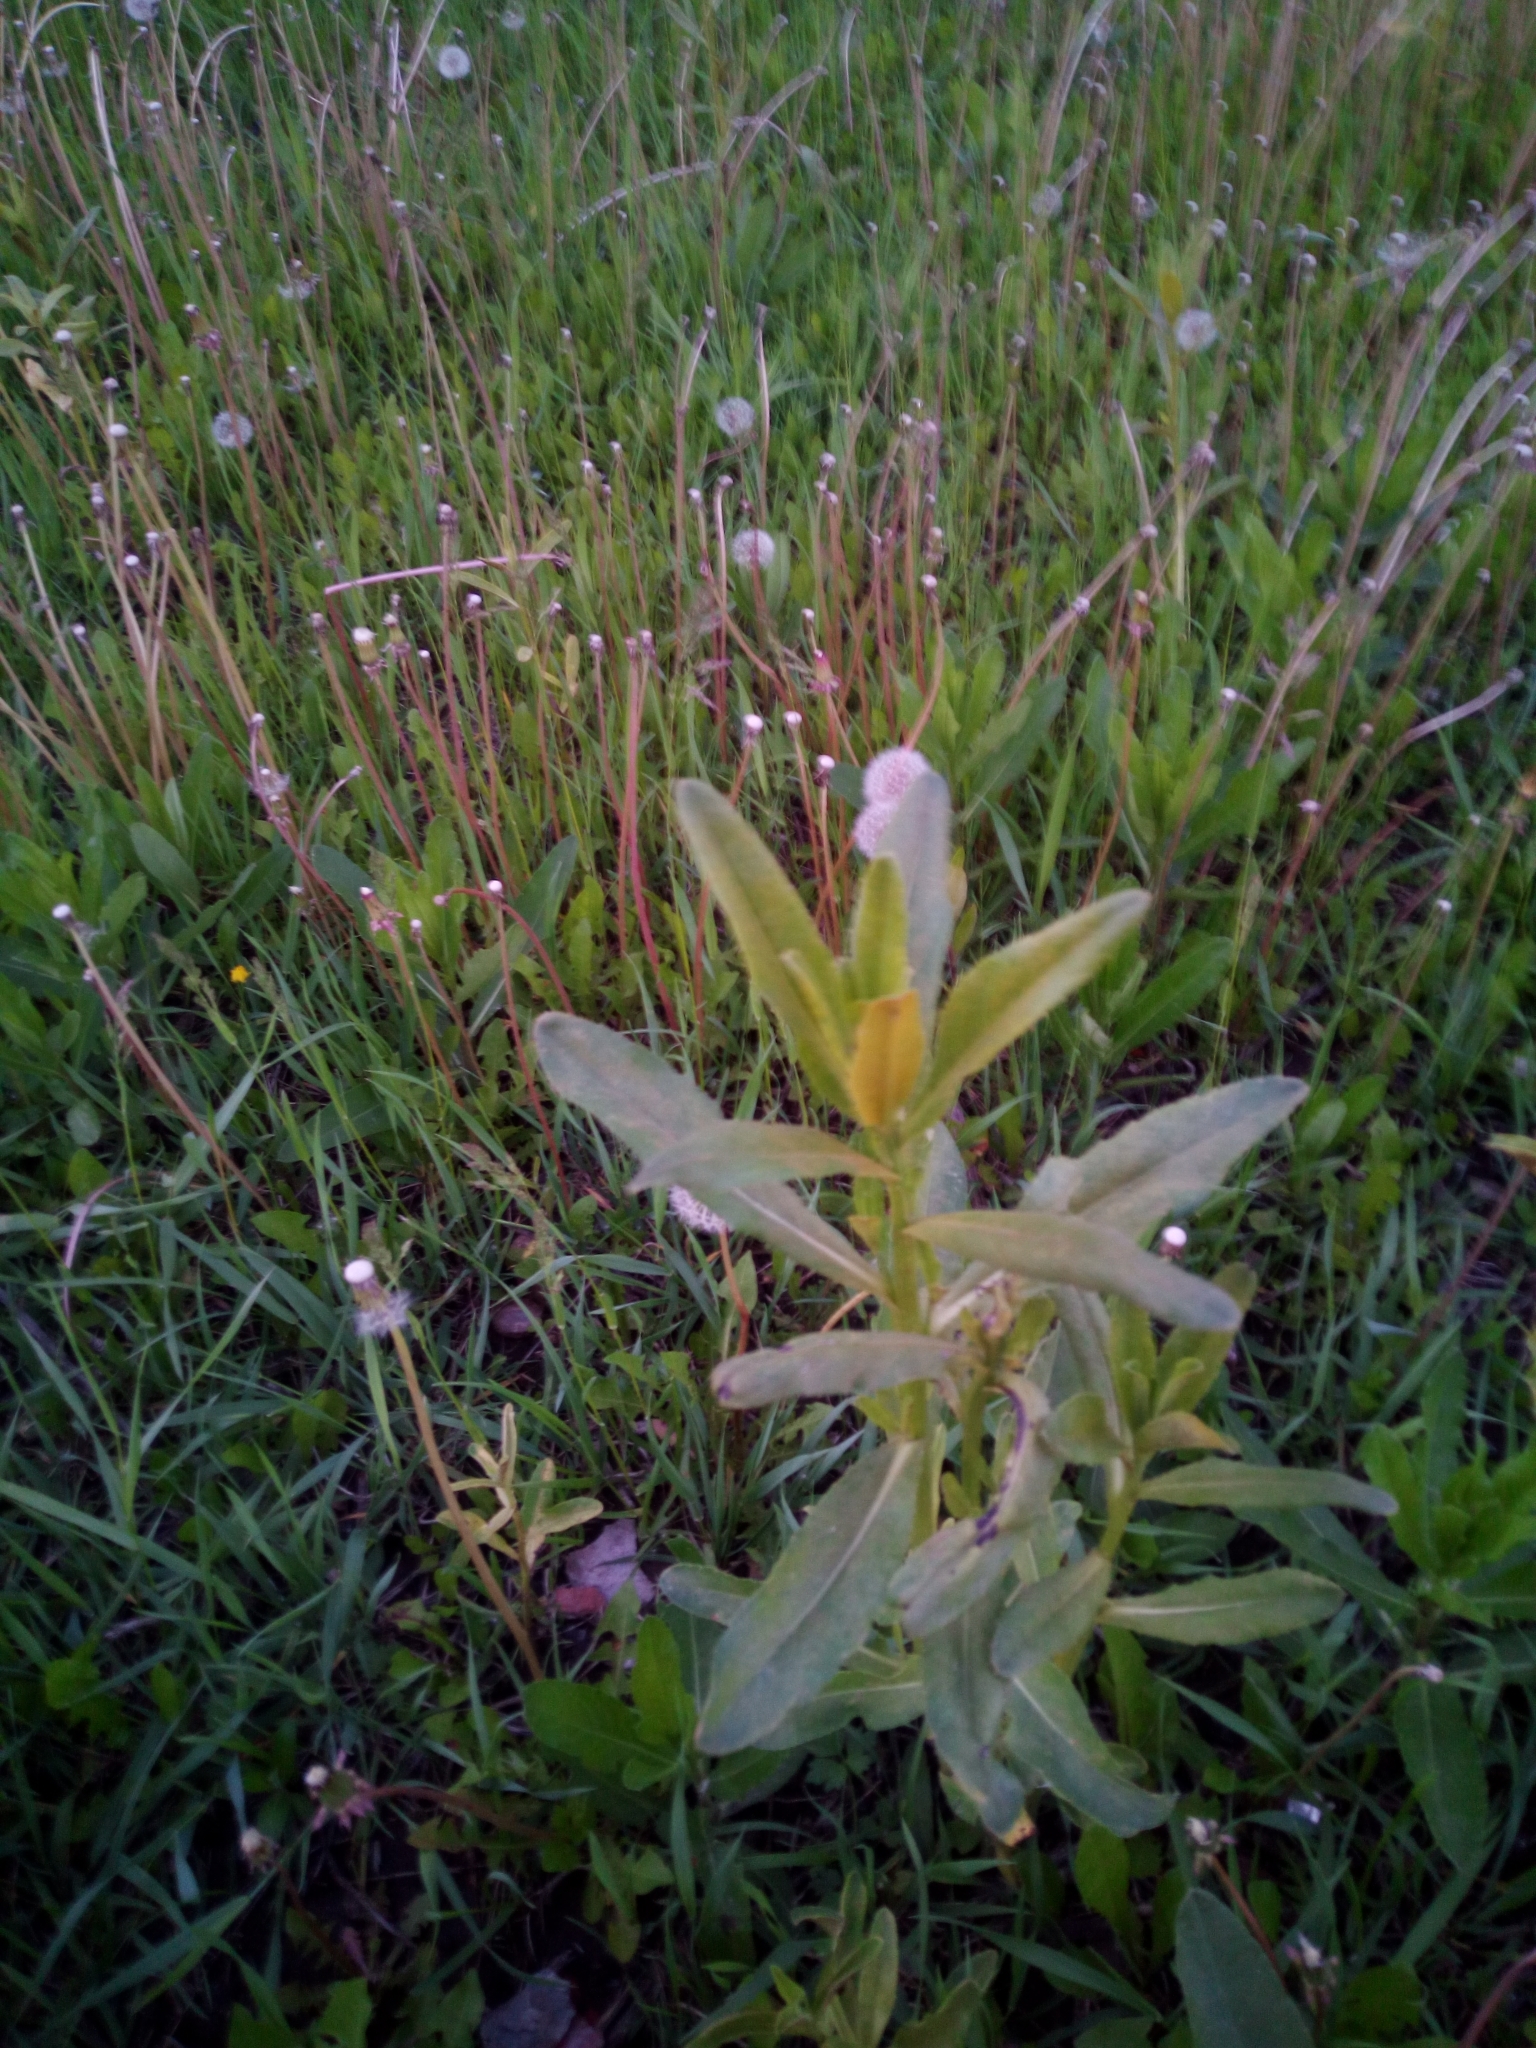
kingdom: Plantae
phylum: Tracheophyta
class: Magnoliopsida
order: Asterales
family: Asteraceae
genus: Cirsium
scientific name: Cirsium arvense
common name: Creeping thistle
